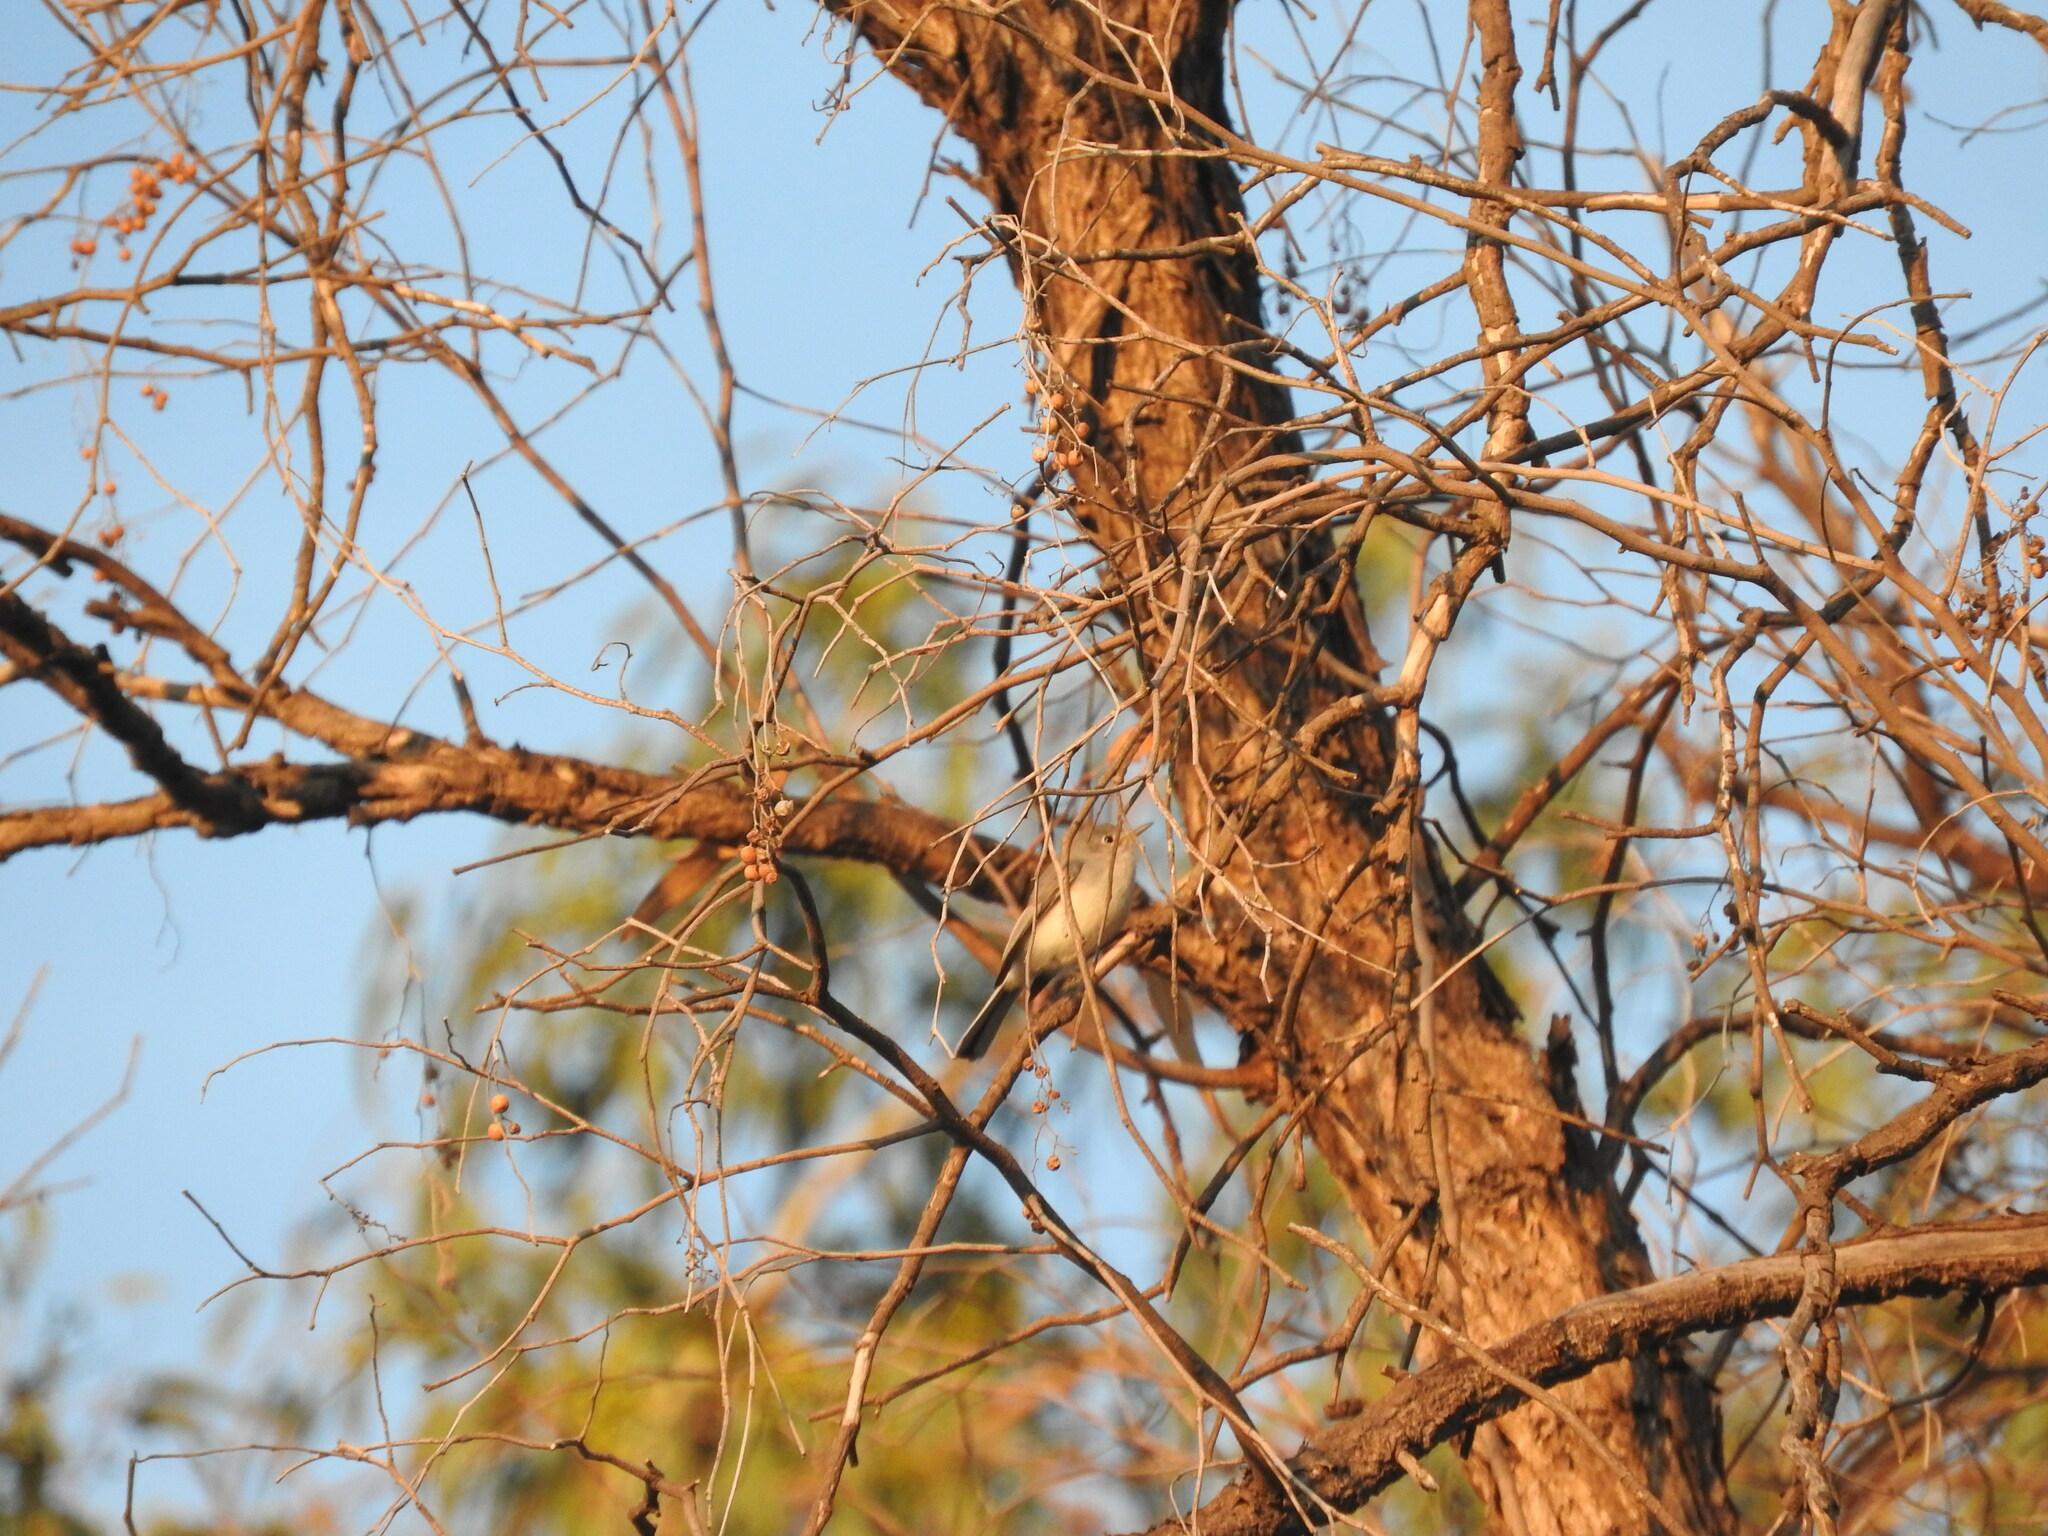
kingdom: Animalia
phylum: Chordata
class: Aves
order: Passeriformes
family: Polioptilidae
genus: Polioptila
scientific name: Polioptila caerulea
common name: Blue-gray gnatcatcher
